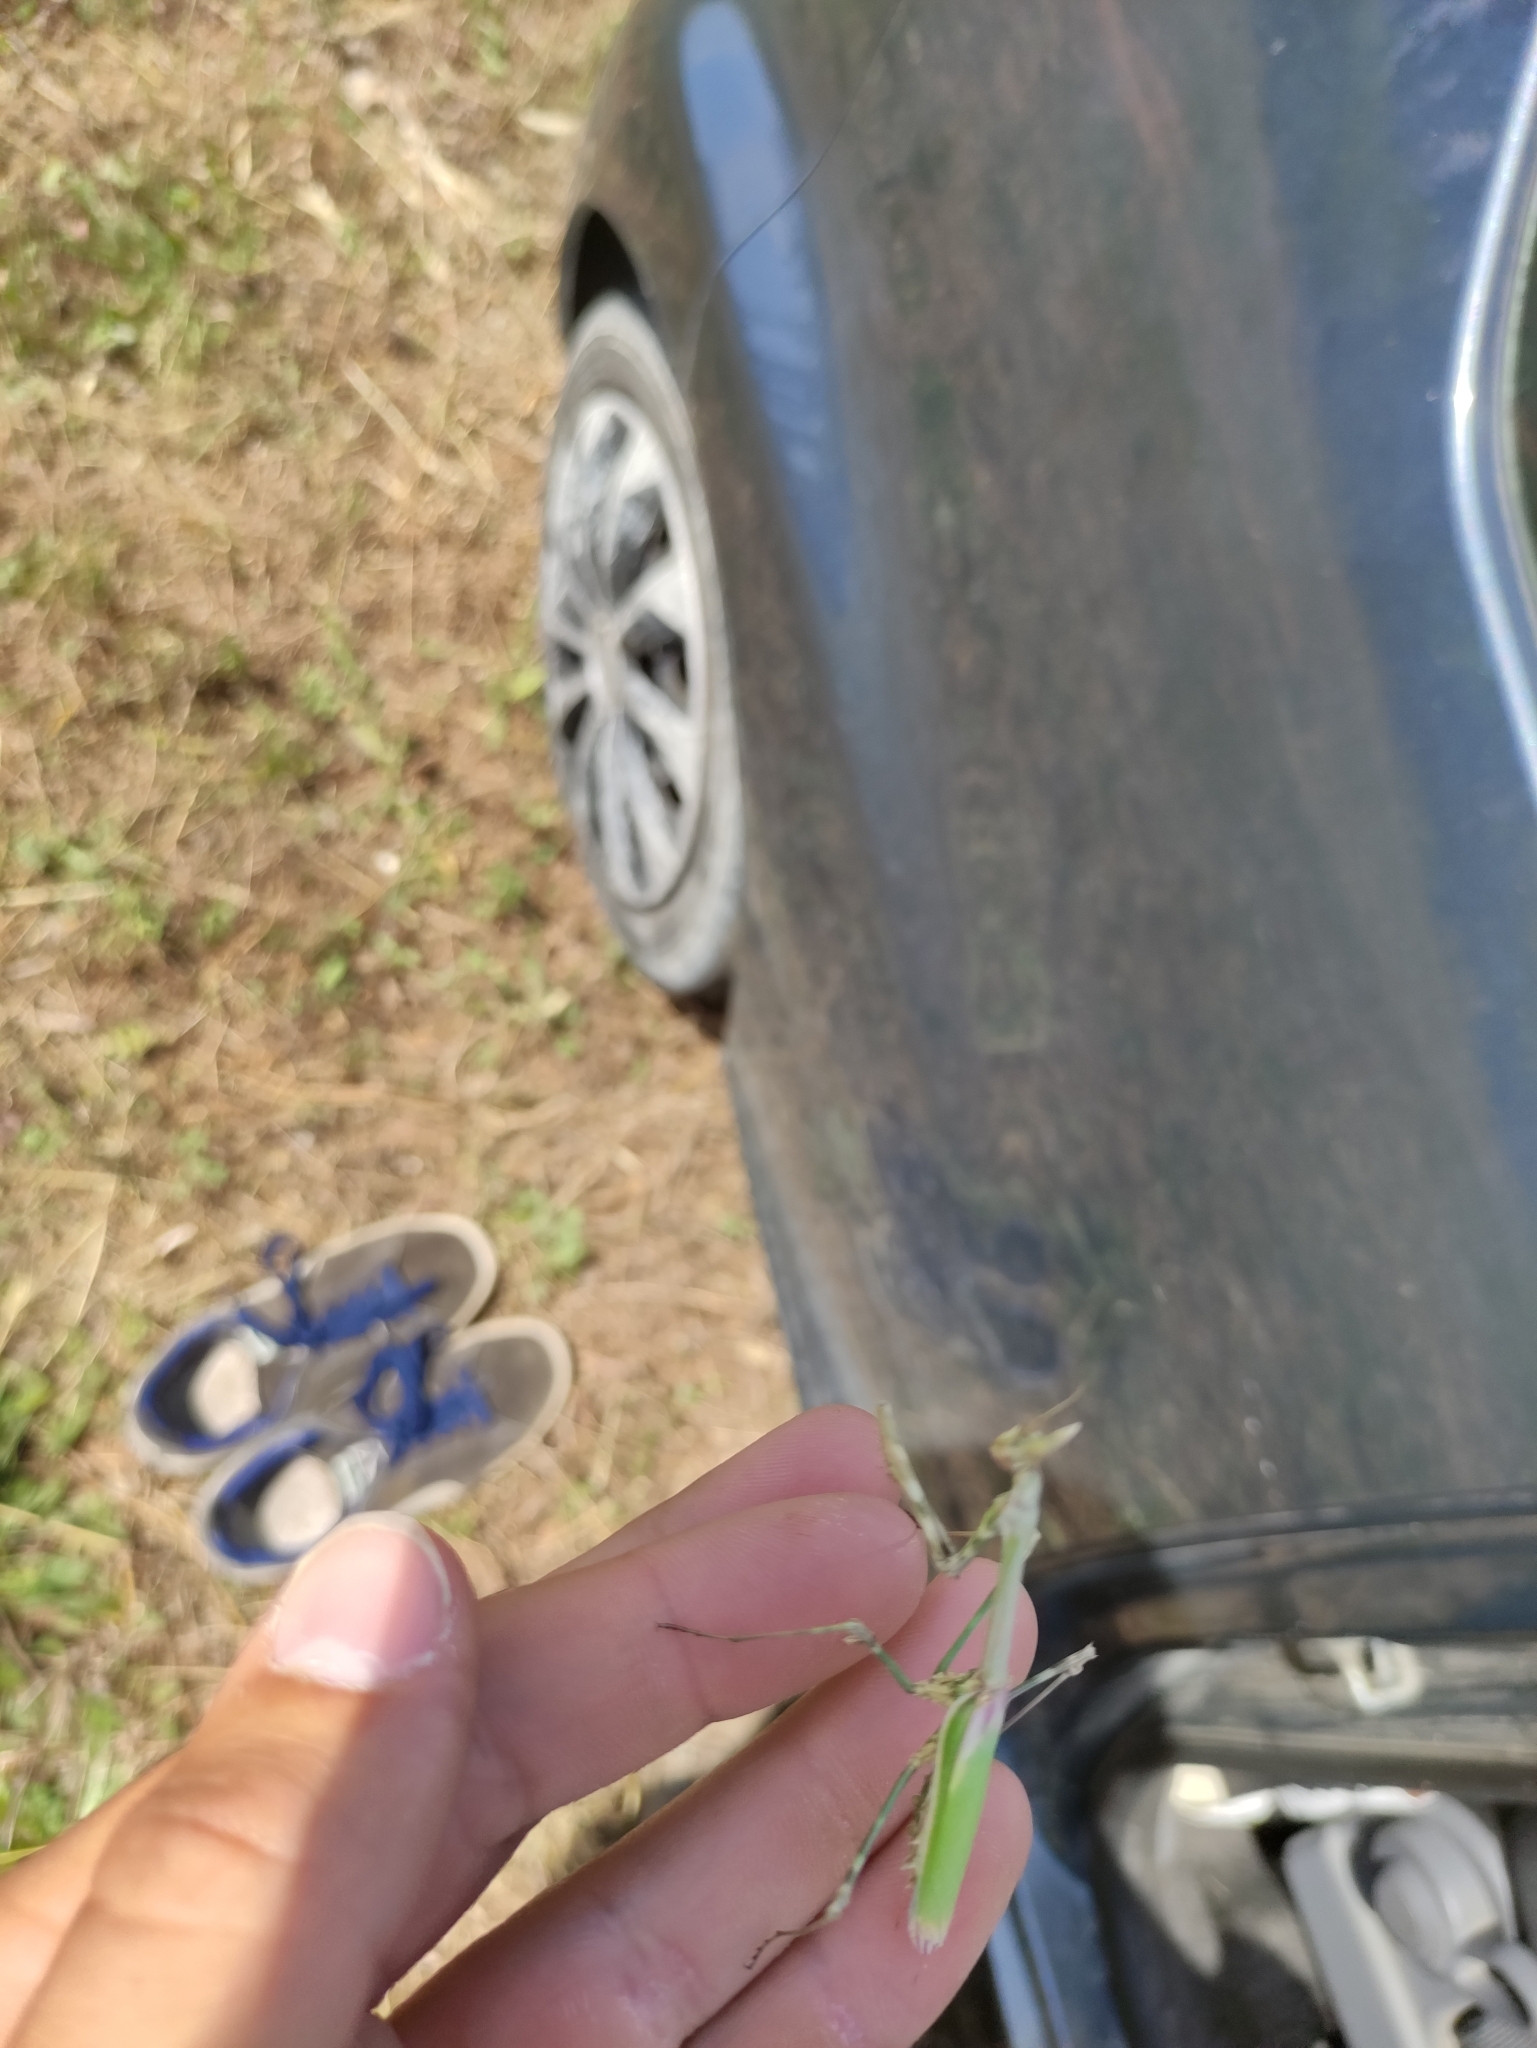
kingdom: Animalia
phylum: Arthropoda
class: Insecta
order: Mantodea
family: Empusidae
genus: Empusa
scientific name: Empusa pennata
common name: Conehead mantis
